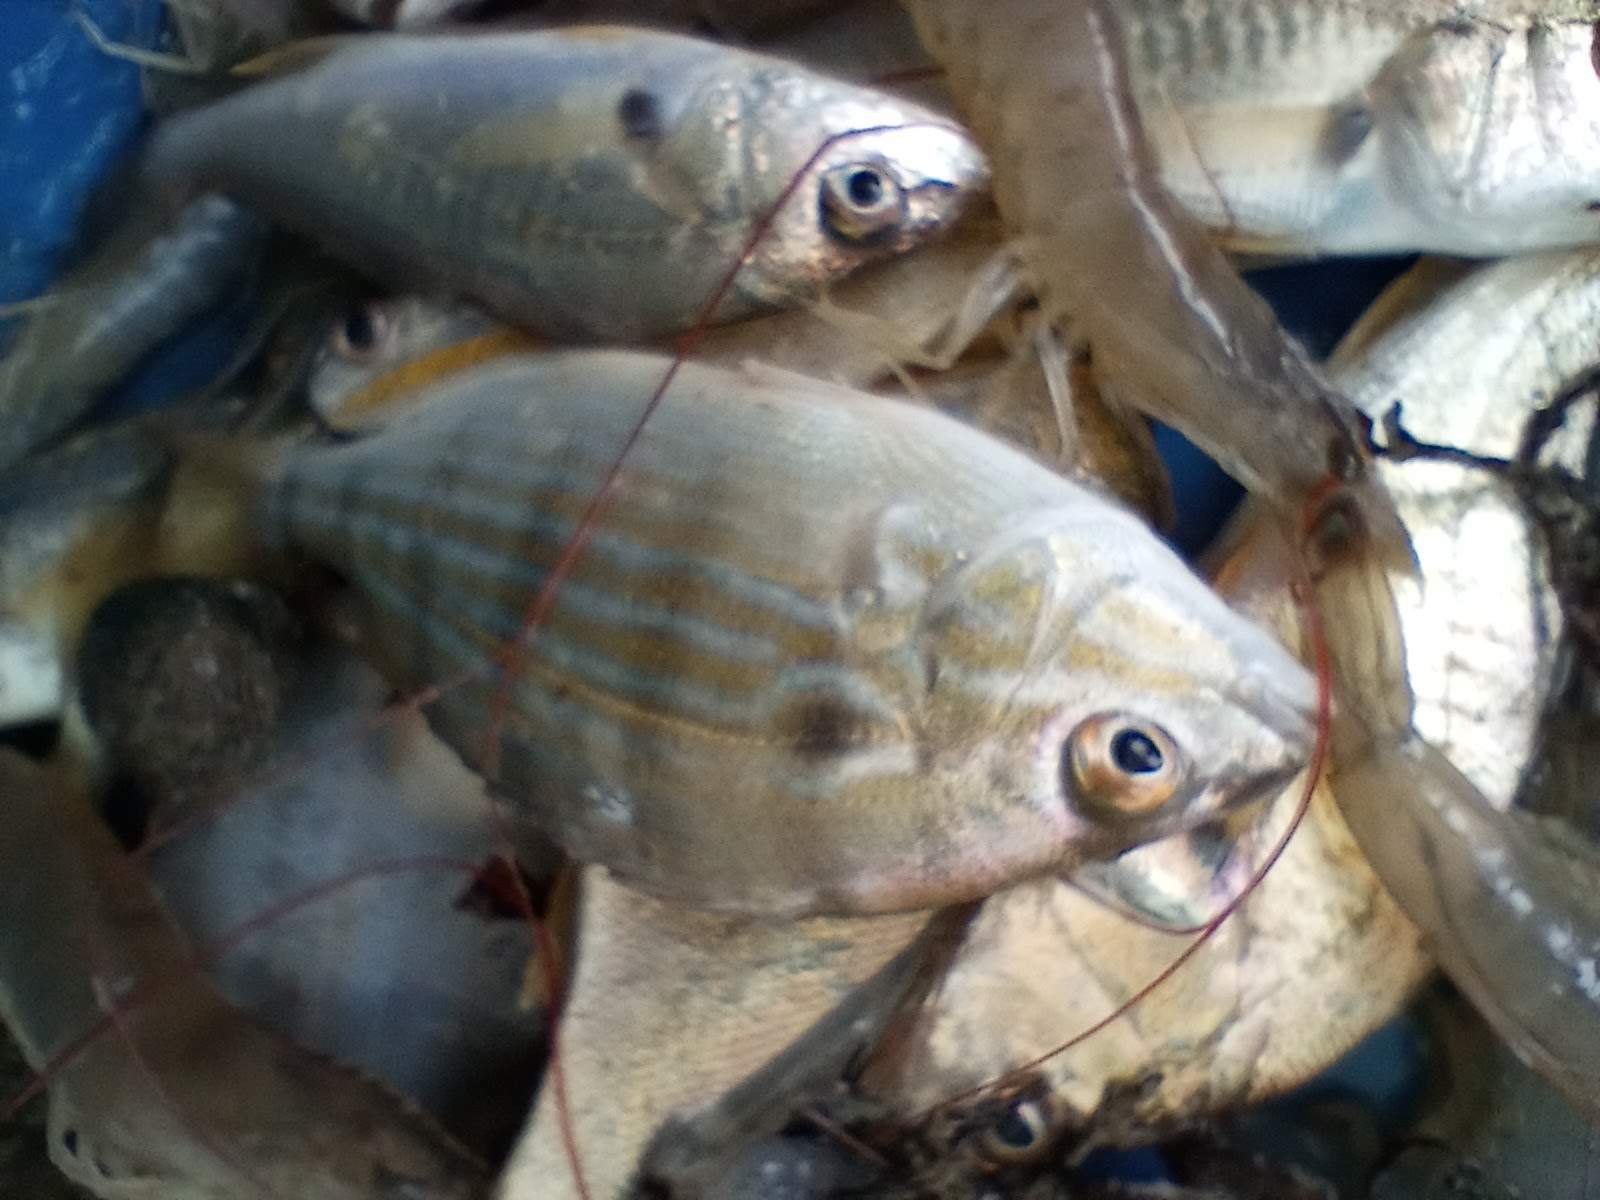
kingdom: Animalia
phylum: Chordata
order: Perciformes
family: Sparidae
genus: Lagodon
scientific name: Lagodon rhomboides
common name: Pinfish
